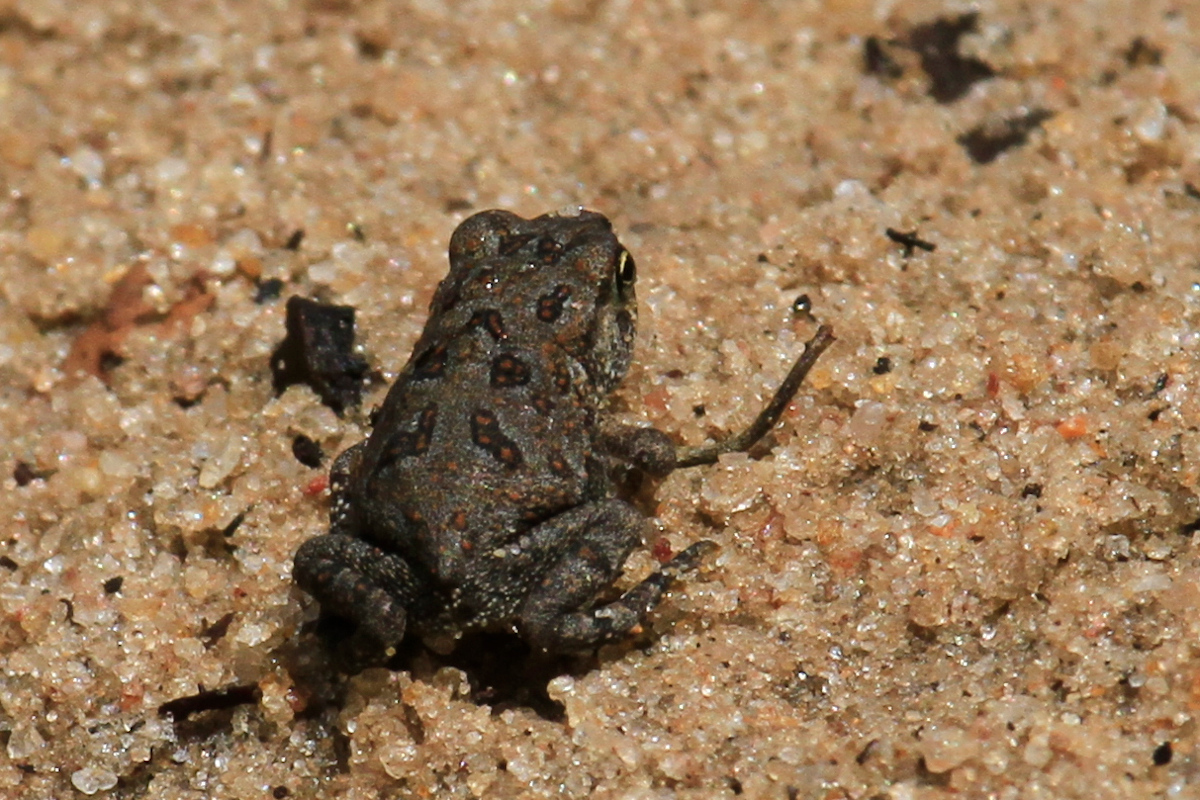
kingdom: Animalia
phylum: Chordata
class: Amphibia
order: Anura
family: Bufonidae
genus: Anaxyrus
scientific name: Anaxyrus
